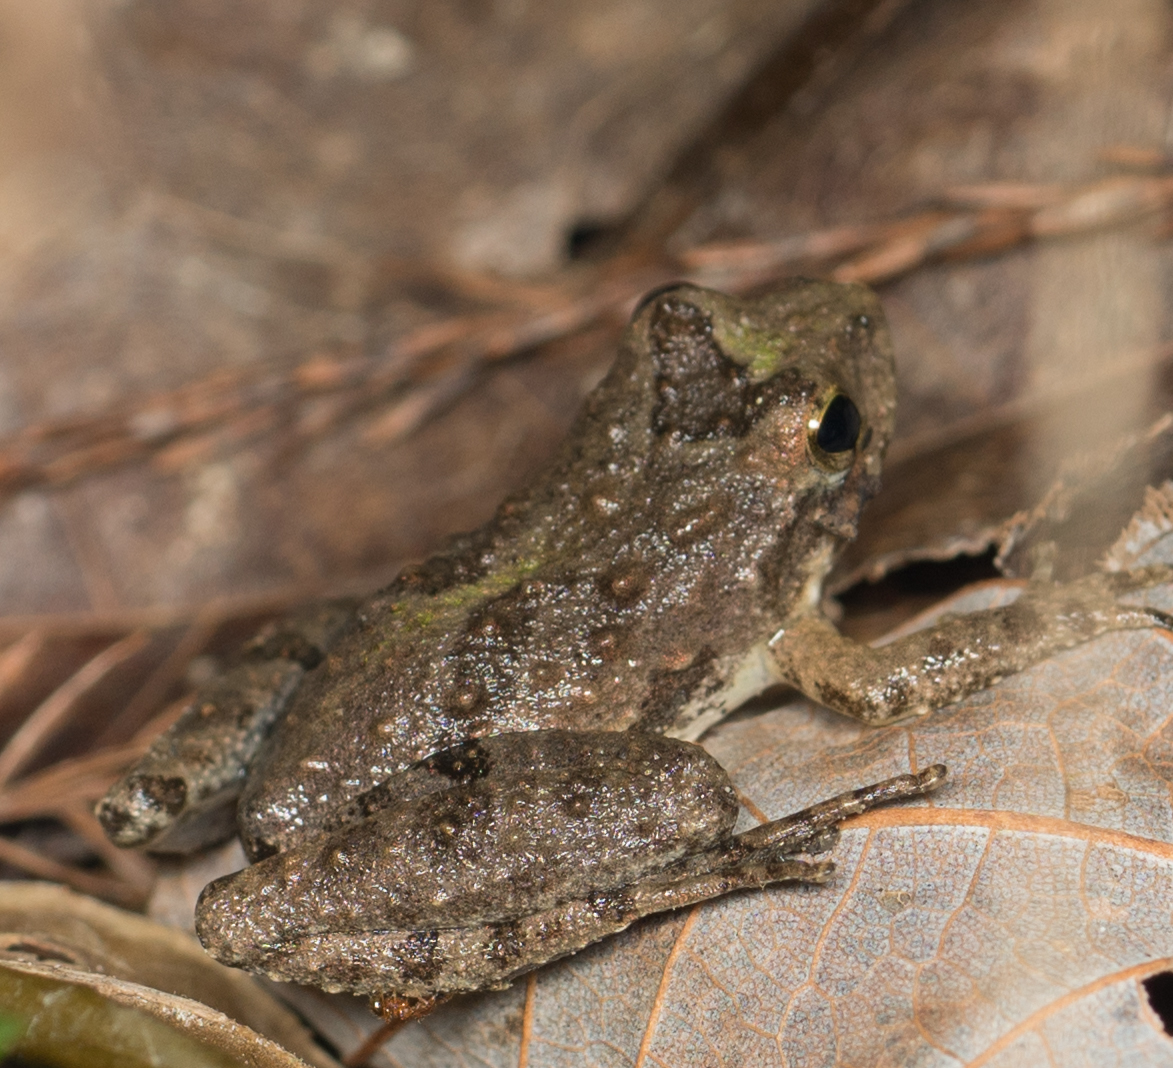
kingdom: Animalia
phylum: Chordata
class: Amphibia
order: Anura
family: Hylidae
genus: Acris
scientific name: Acris blanchardi
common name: Blanchard's cricket frog
